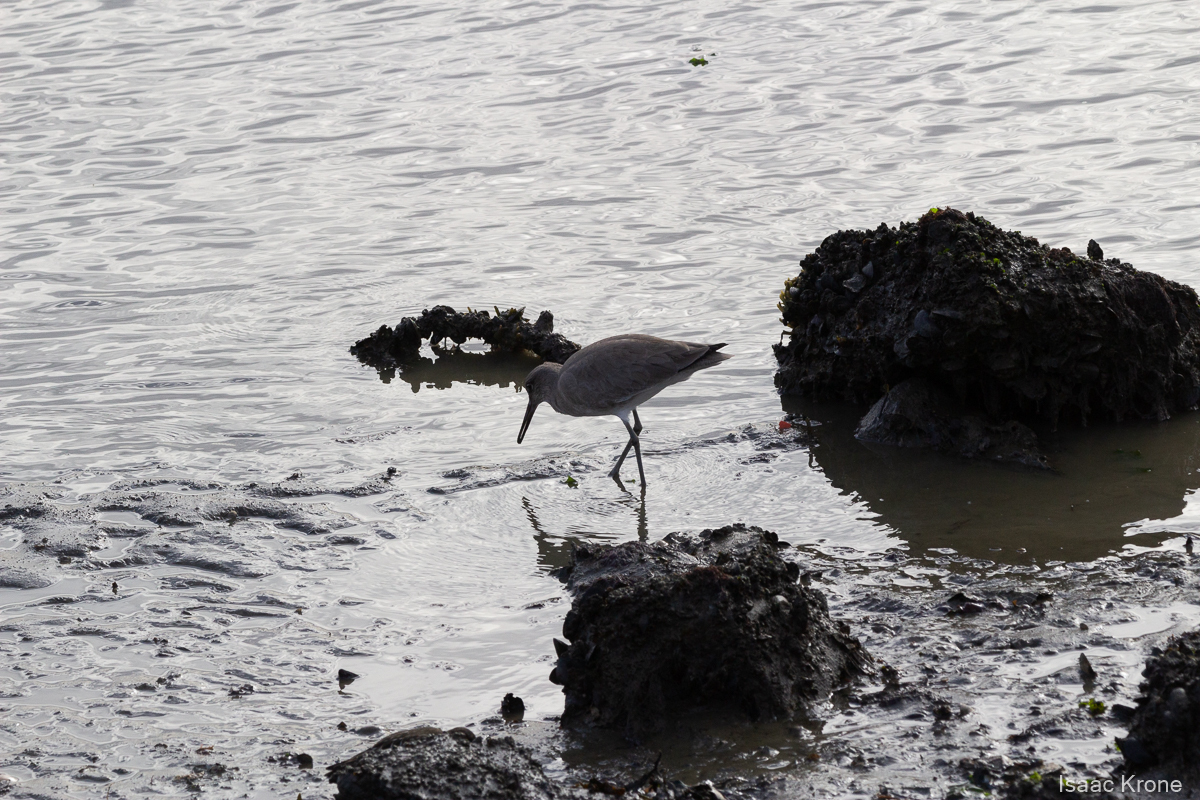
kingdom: Animalia
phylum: Chordata
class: Aves
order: Charadriiformes
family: Scolopacidae
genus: Tringa
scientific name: Tringa semipalmata
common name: Willet
